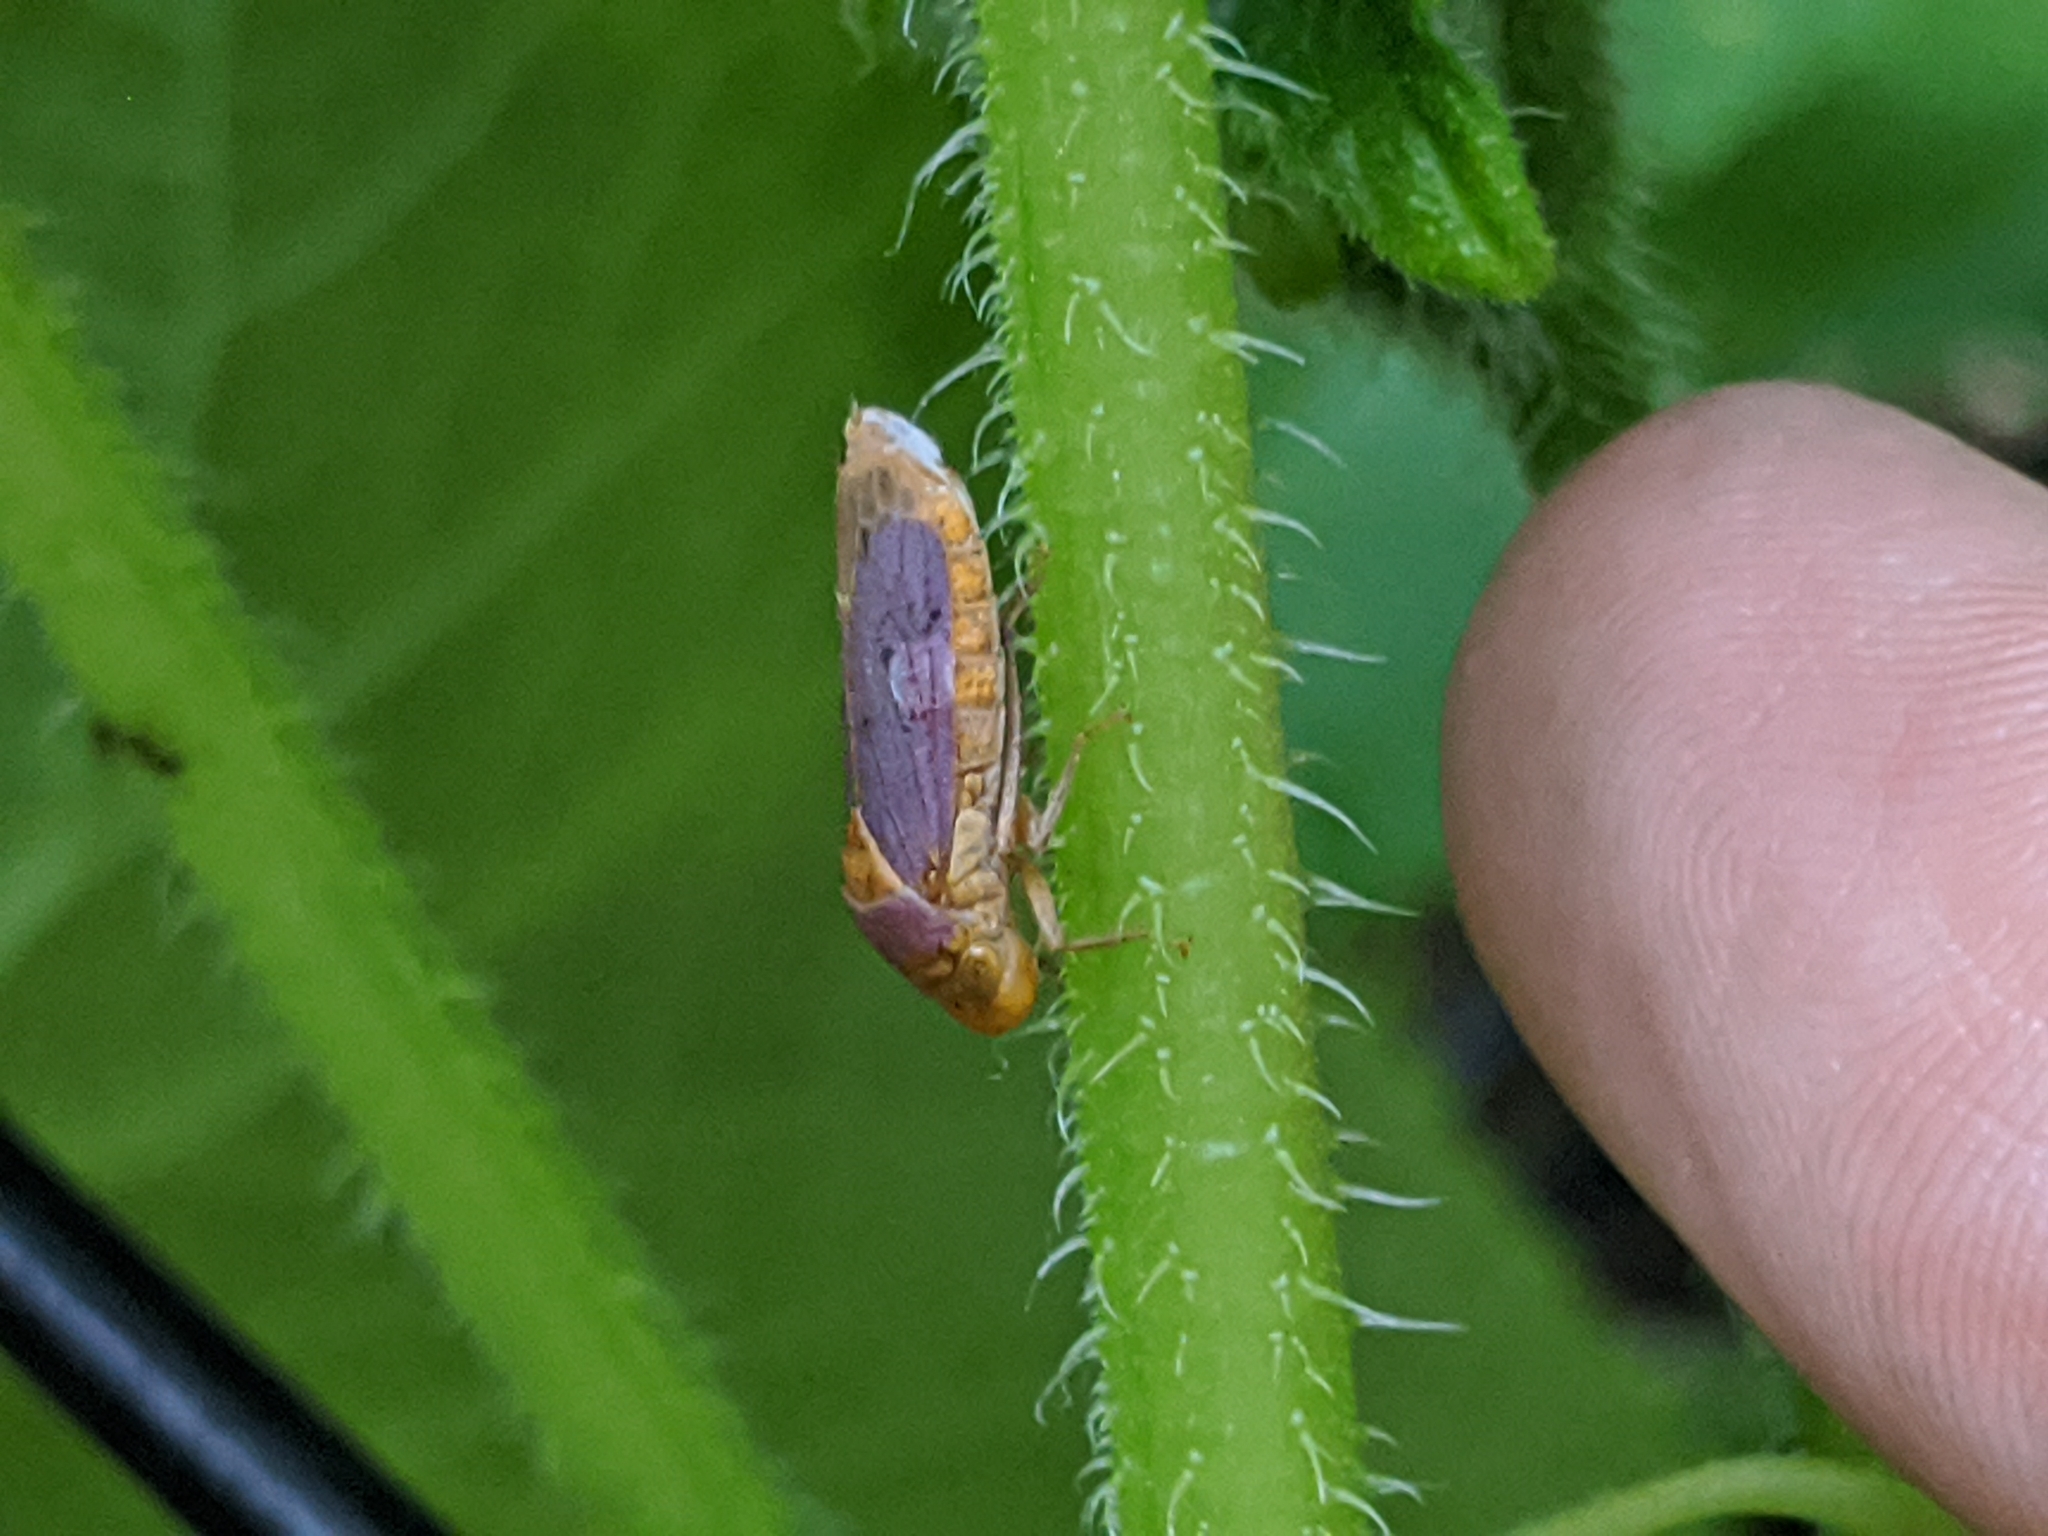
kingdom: Animalia
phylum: Arthropoda
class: Insecta
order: Hemiptera
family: Cicadellidae
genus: Oncometopia
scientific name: Oncometopia hamiltoni
